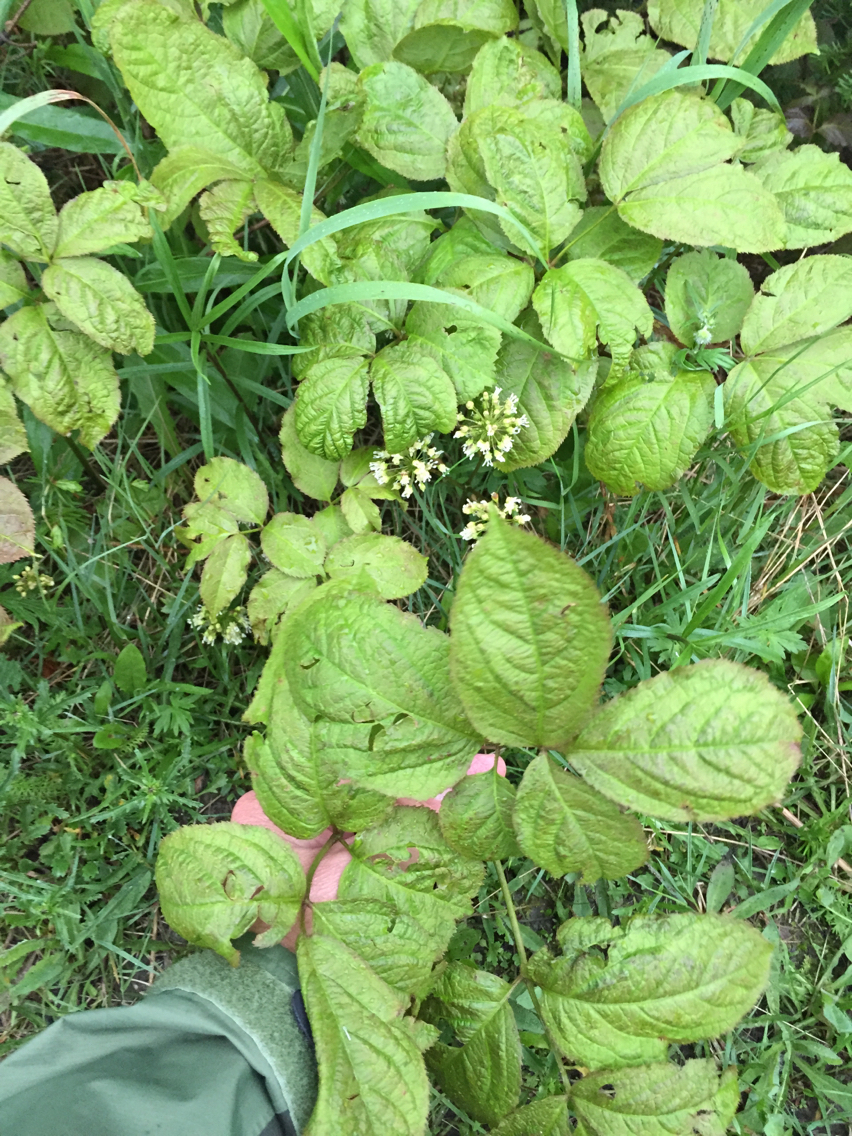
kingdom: Plantae
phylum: Tracheophyta
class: Magnoliopsida
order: Apiales
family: Araliaceae
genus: Aralia
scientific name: Aralia nudicaulis
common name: Wild sarsaparilla
